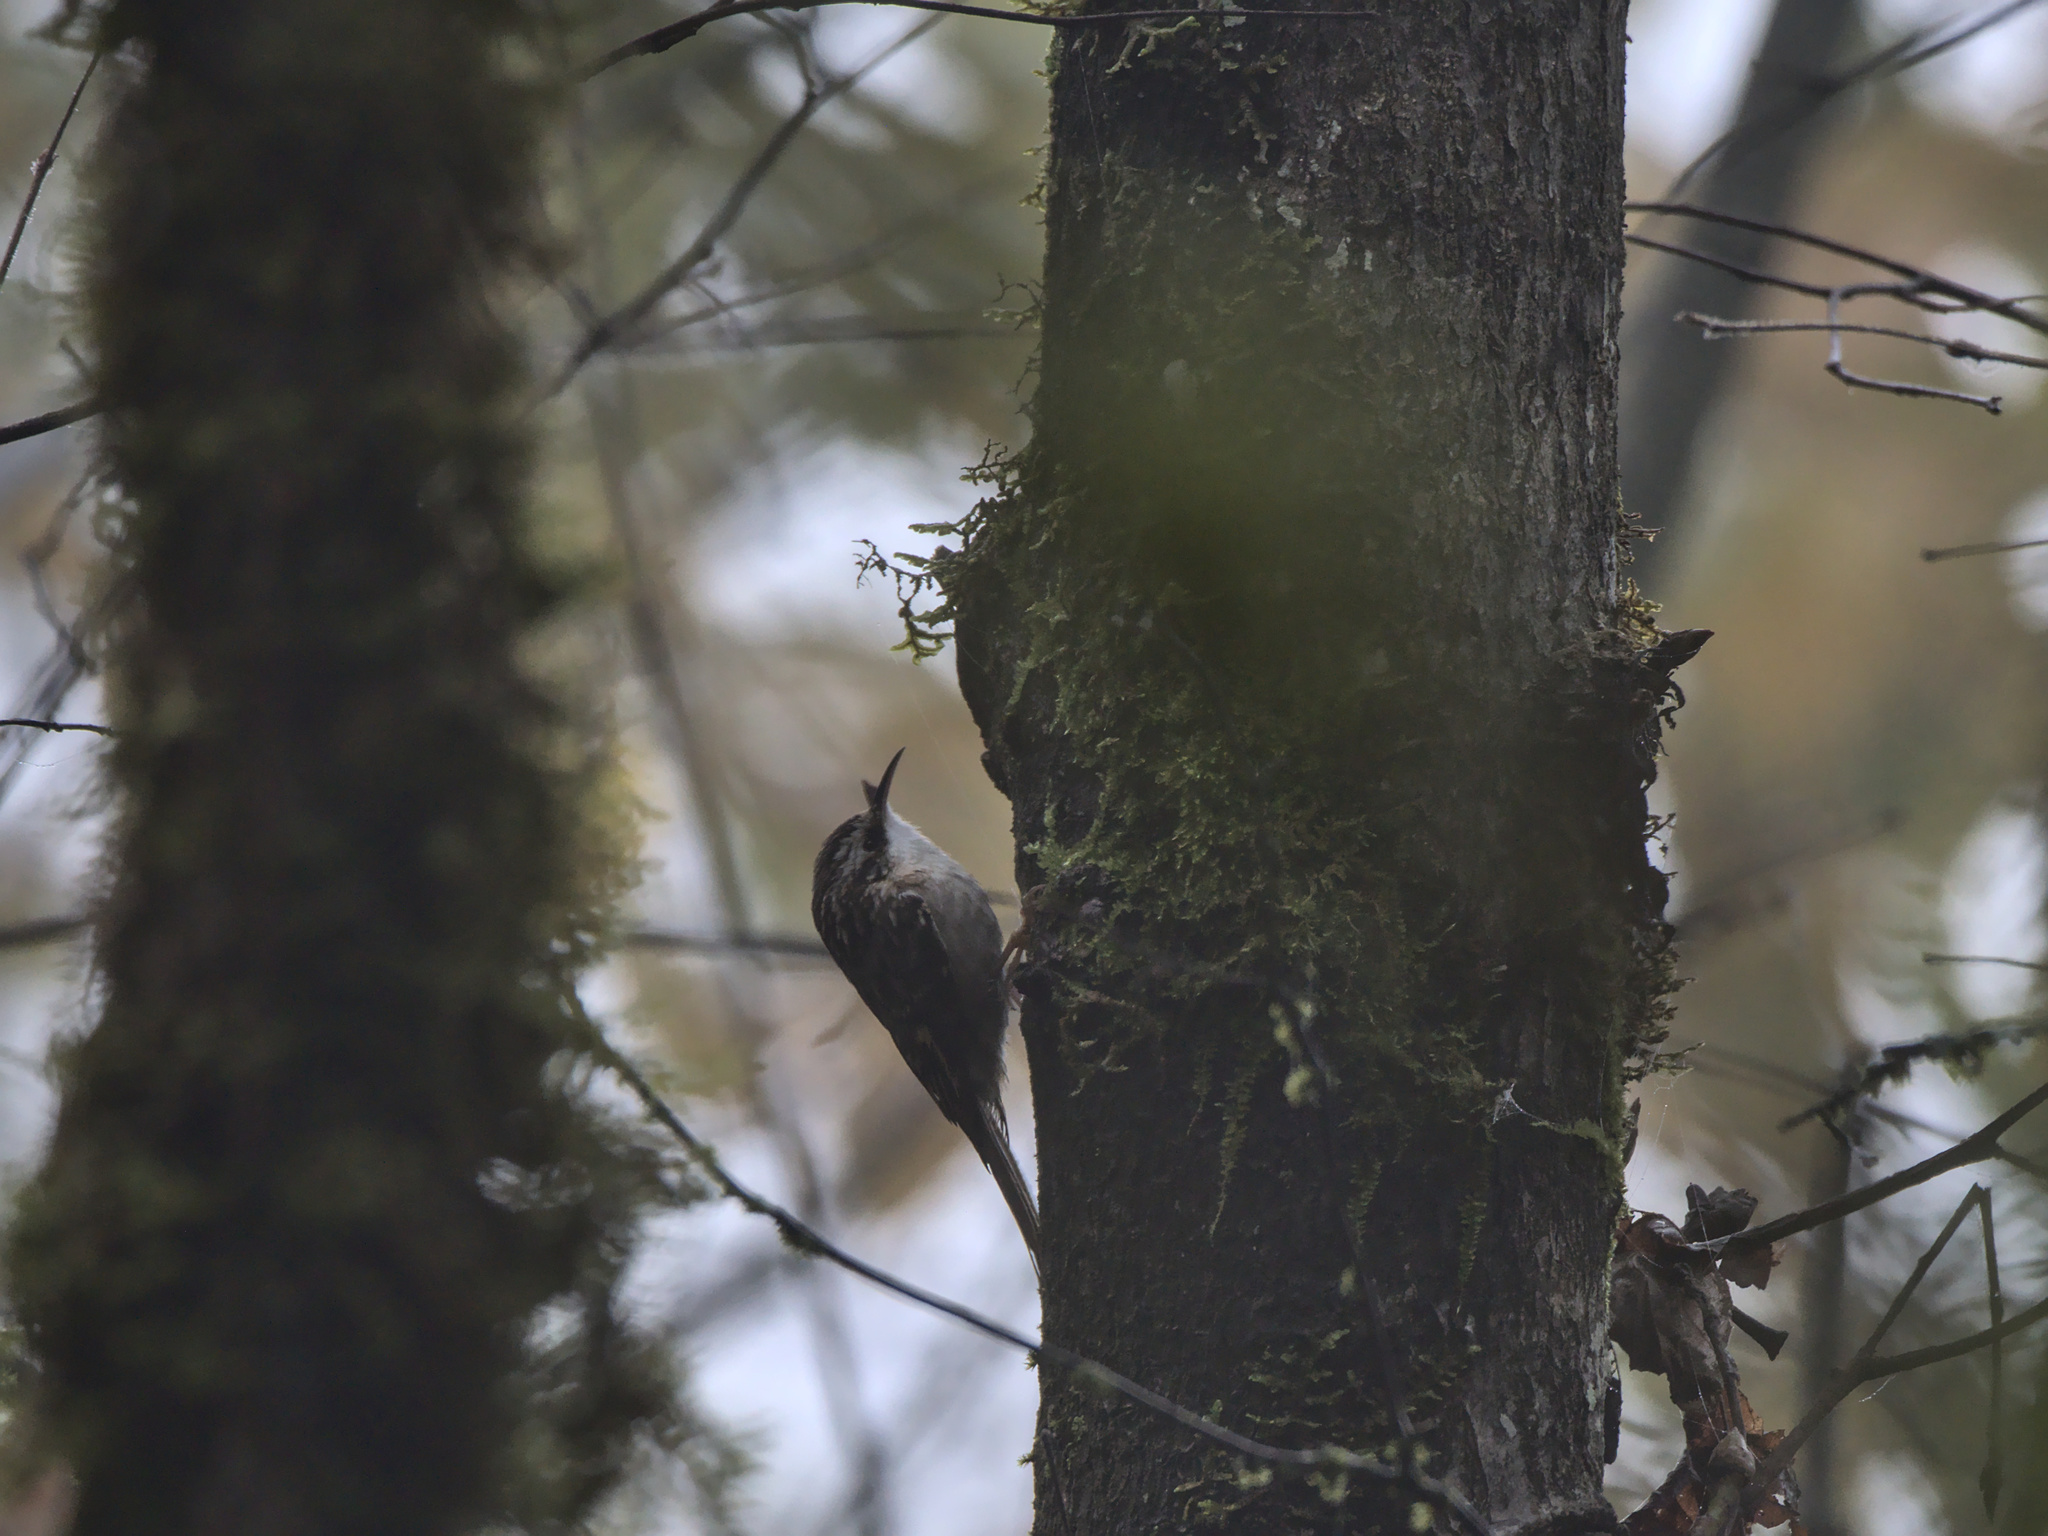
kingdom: Animalia
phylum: Chordata
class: Aves
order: Passeriformes
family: Certhiidae
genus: Certhia
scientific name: Certhia americana
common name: Brown creeper
